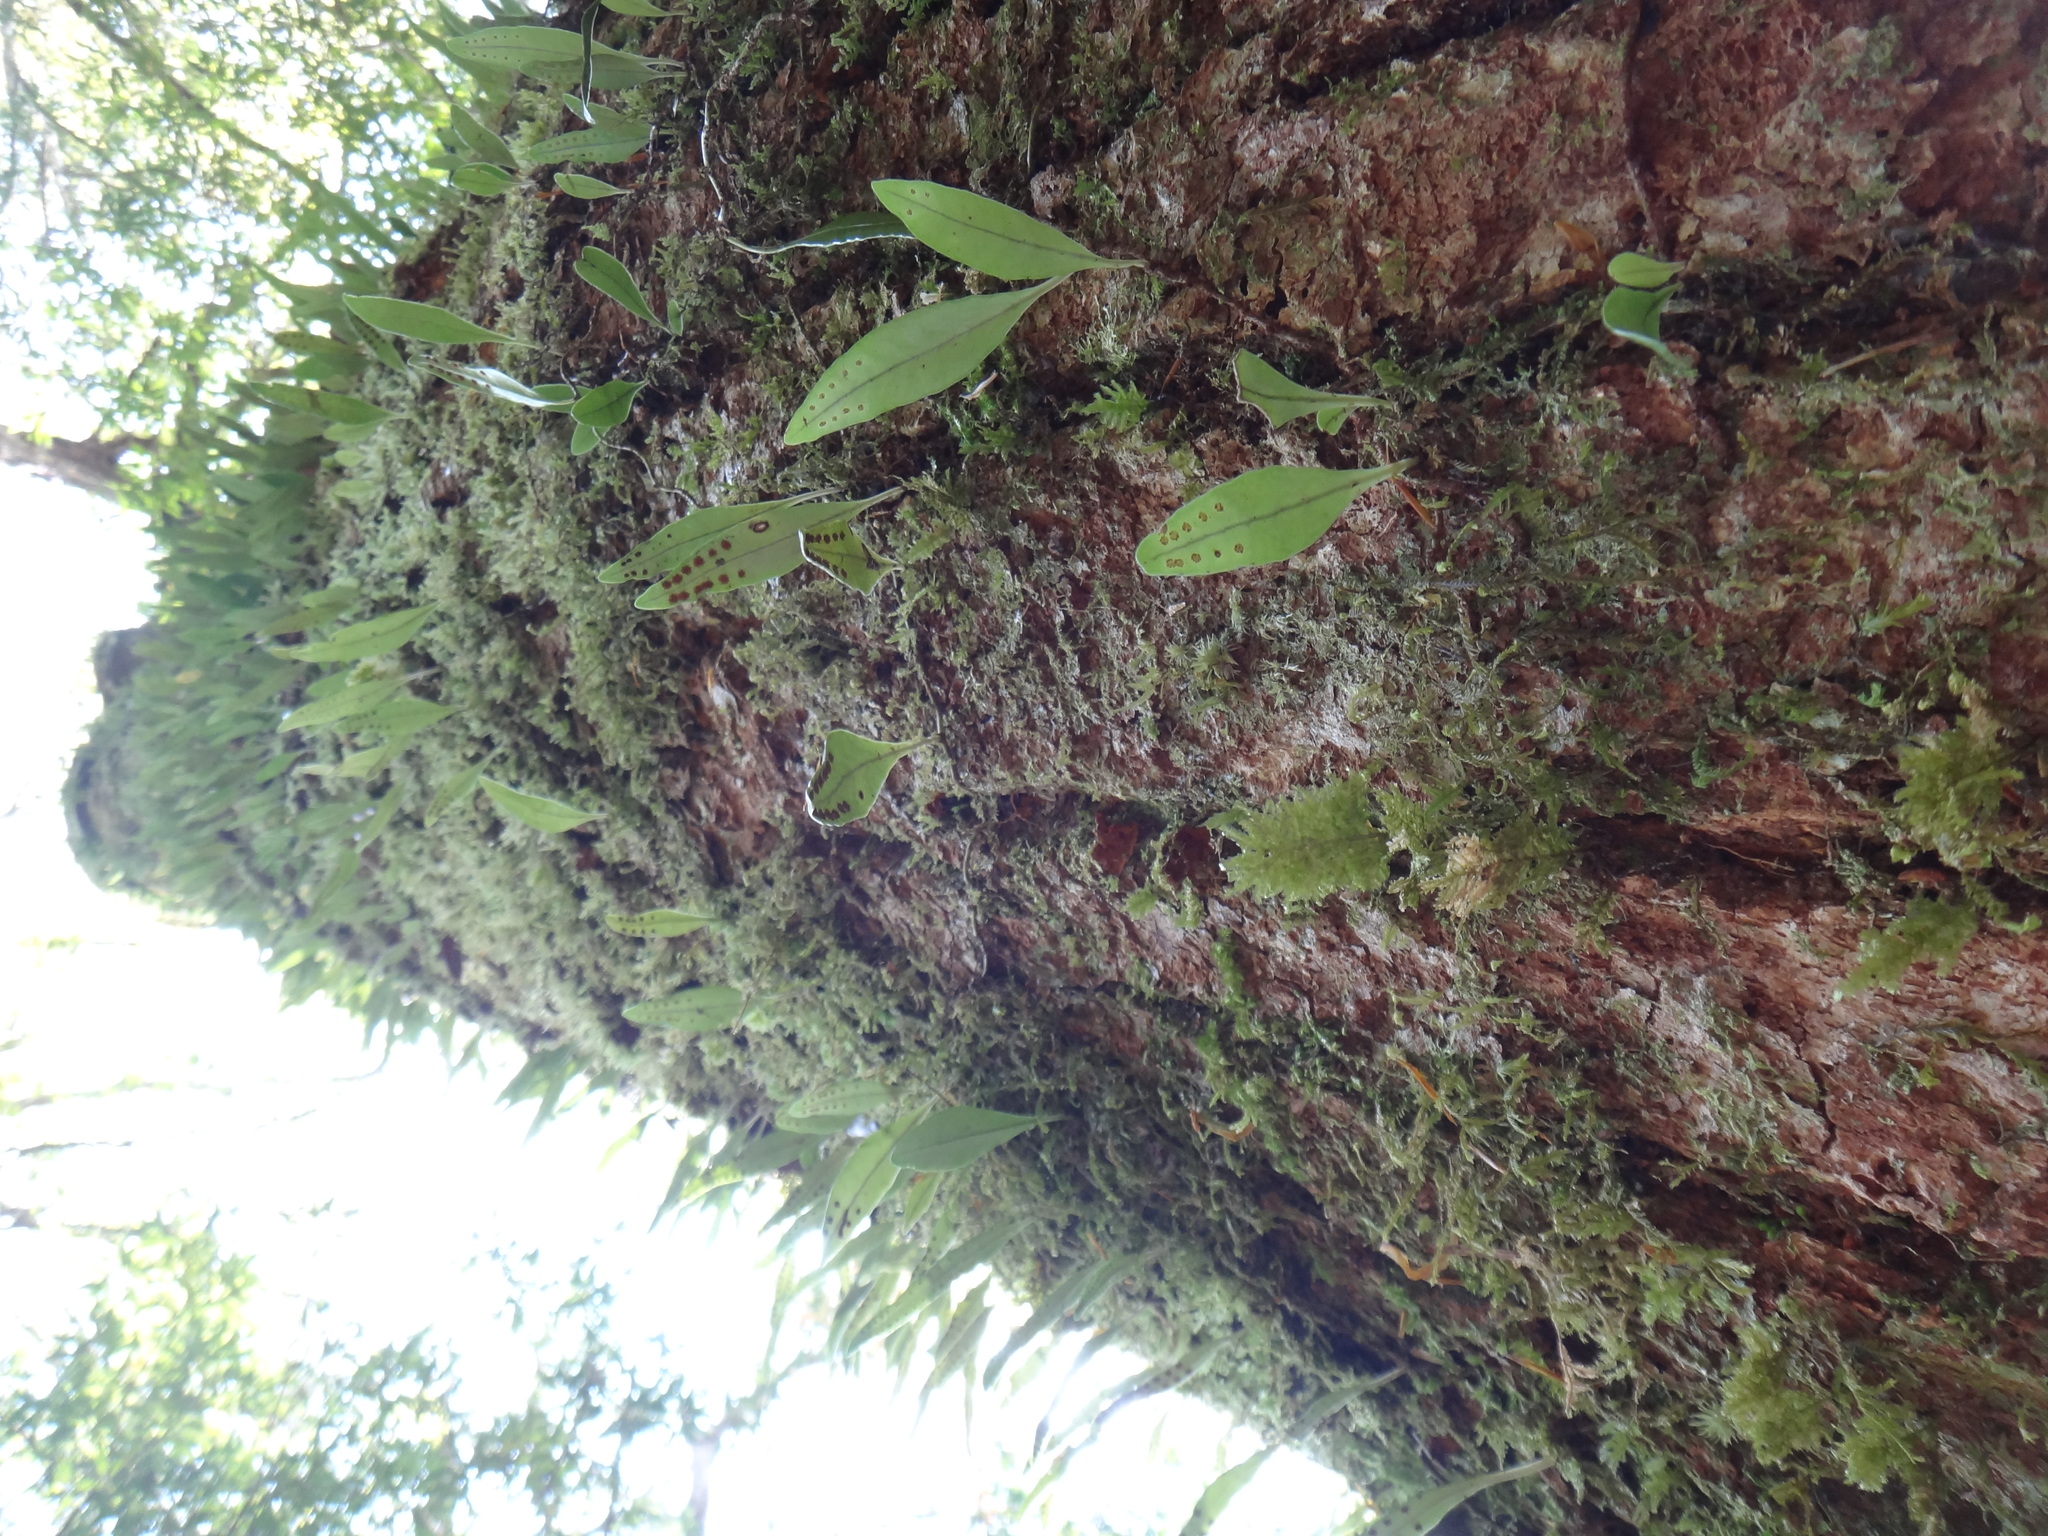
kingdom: Plantae
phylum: Tracheophyta
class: Polypodiopsida
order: Polypodiales
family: Polypodiaceae
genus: Lepisorus
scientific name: Lepisorus carnosus
